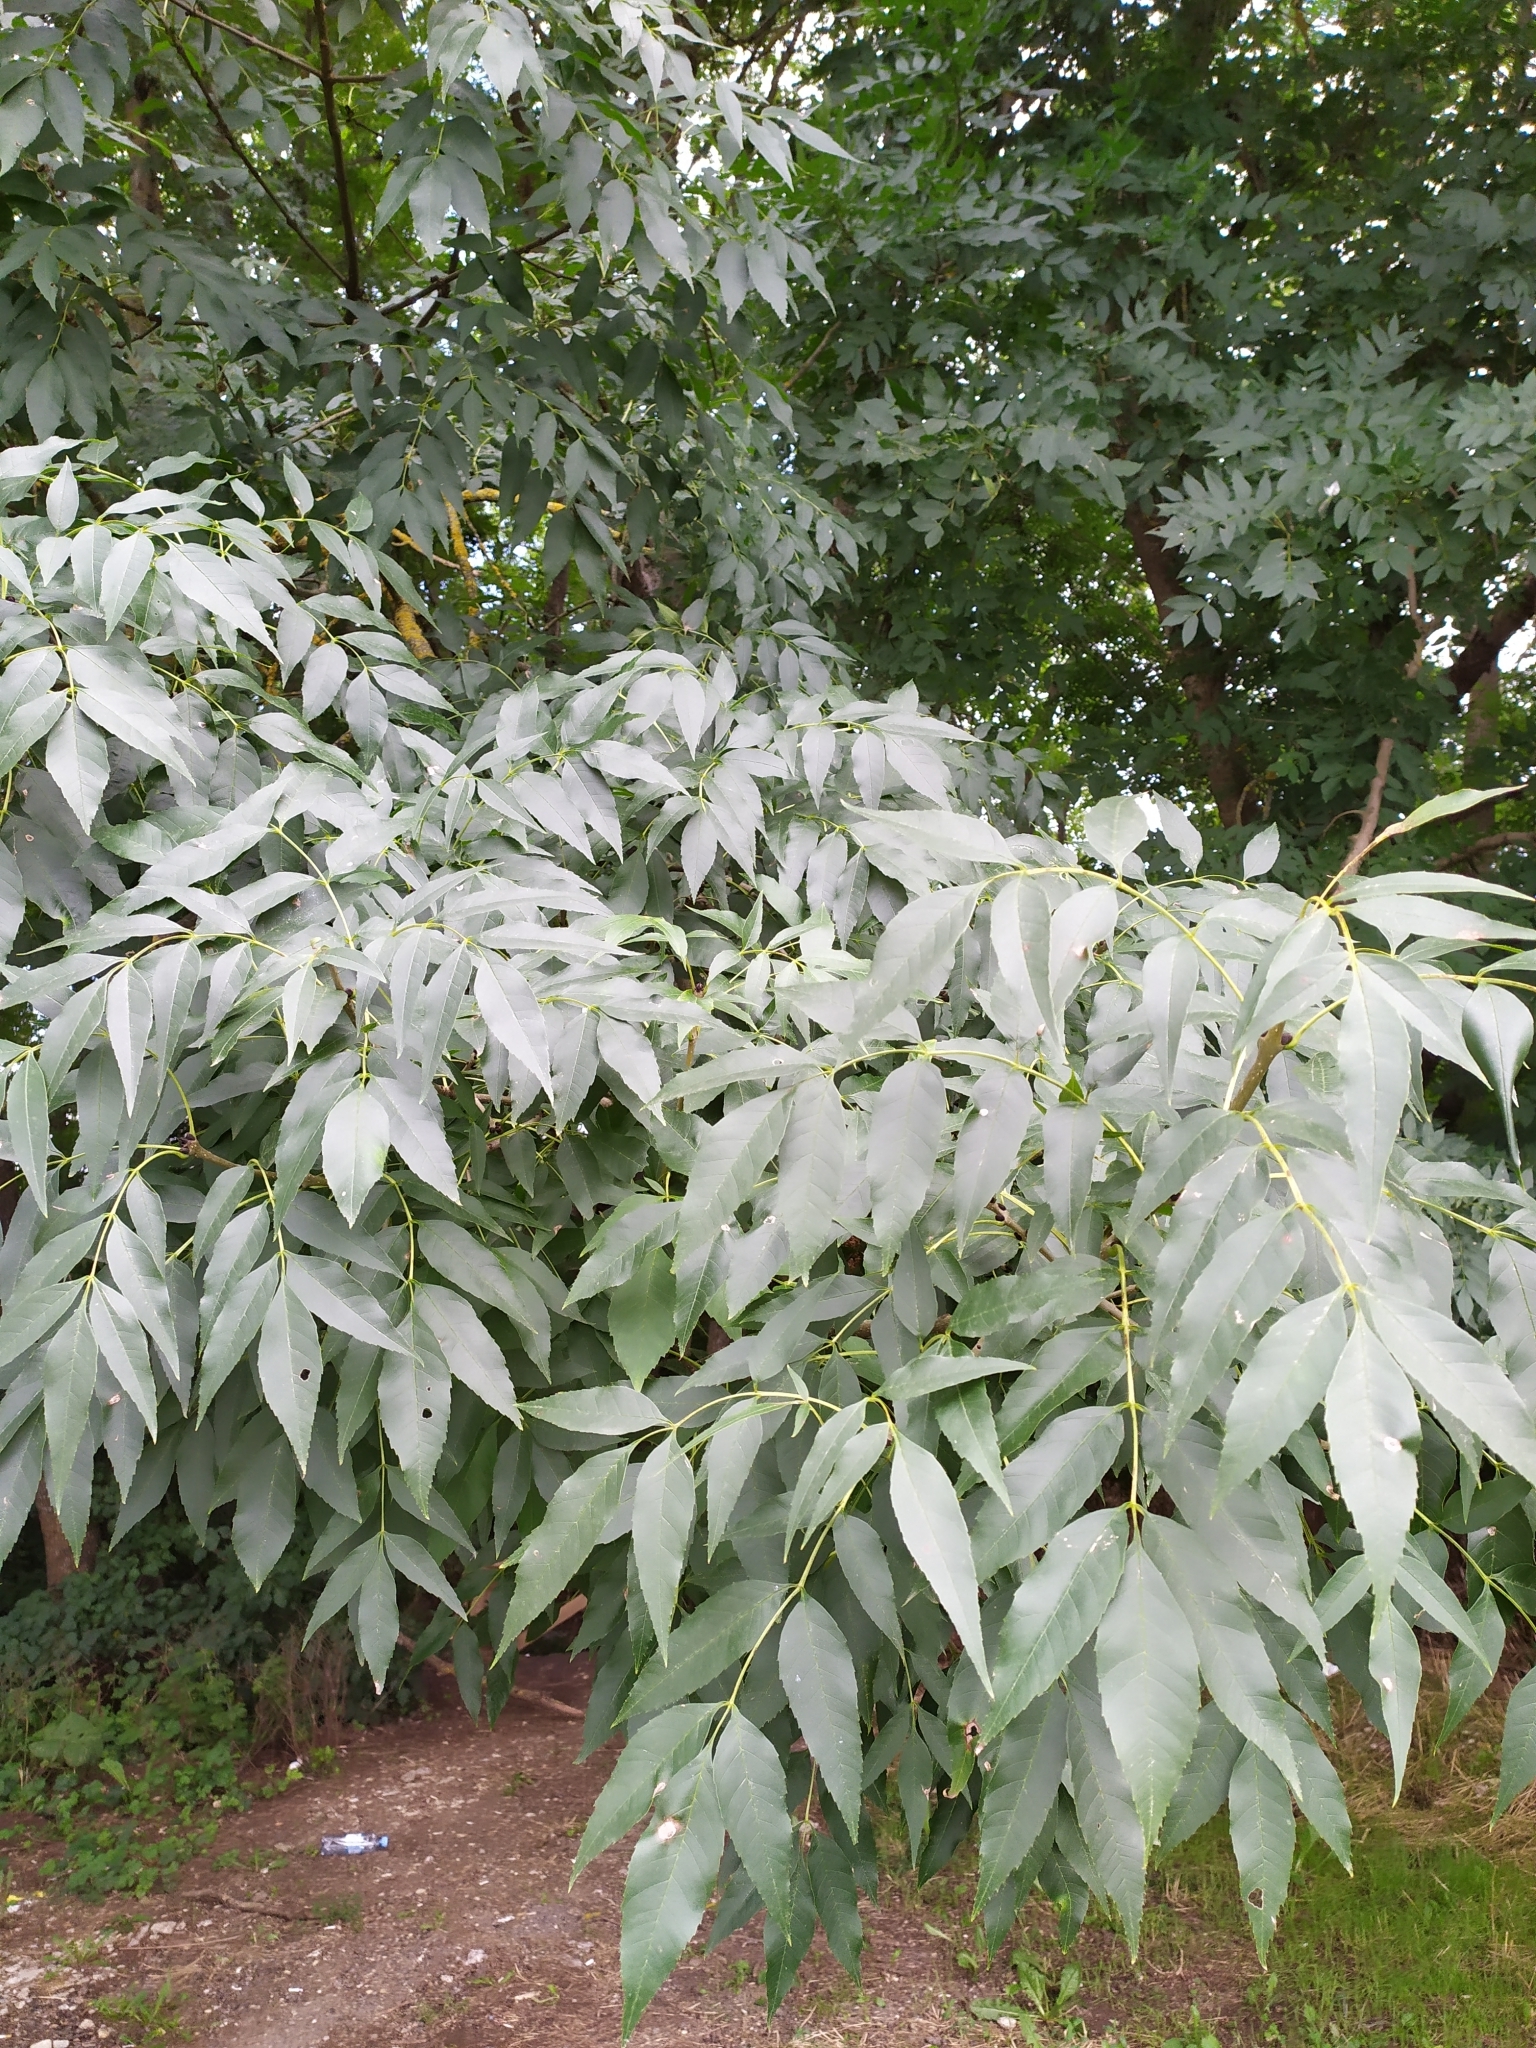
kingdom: Plantae
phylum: Tracheophyta
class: Magnoliopsida
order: Lamiales
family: Oleaceae
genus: Fraxinus
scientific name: Fraxinus excelsior
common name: European ash
